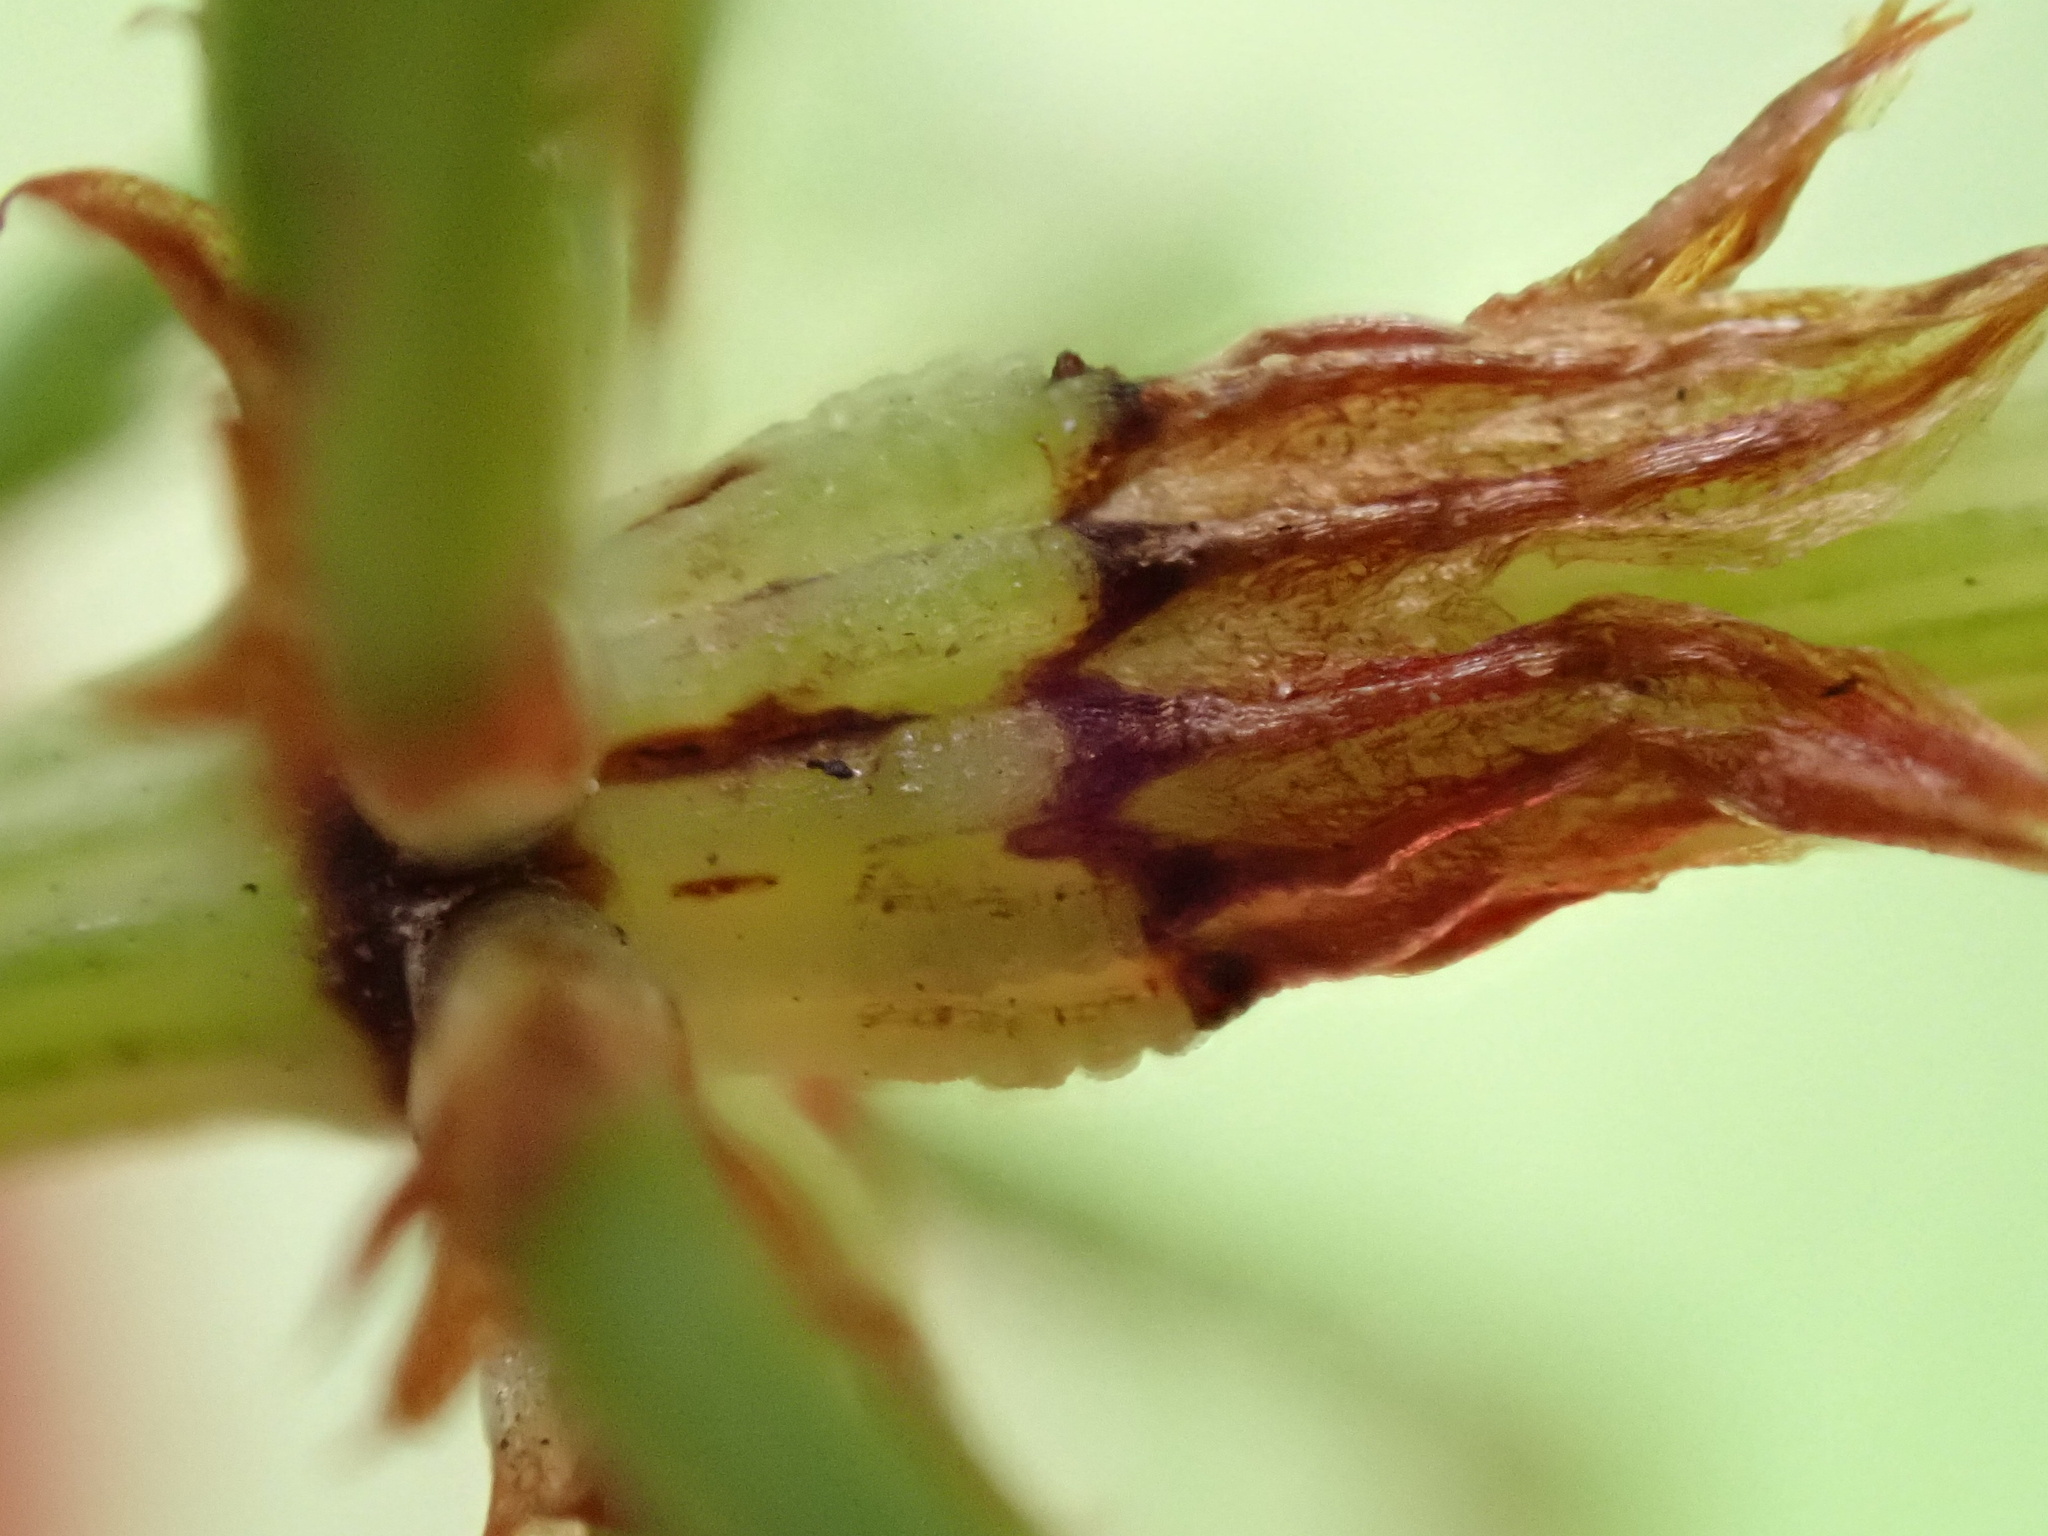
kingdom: Plantae
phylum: Tracheophyta
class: Polypodiopsida
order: Equisetales
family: Equisetaceae
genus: Equisetum
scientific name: Equisetum sylvaticum
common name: Wood horsetail
